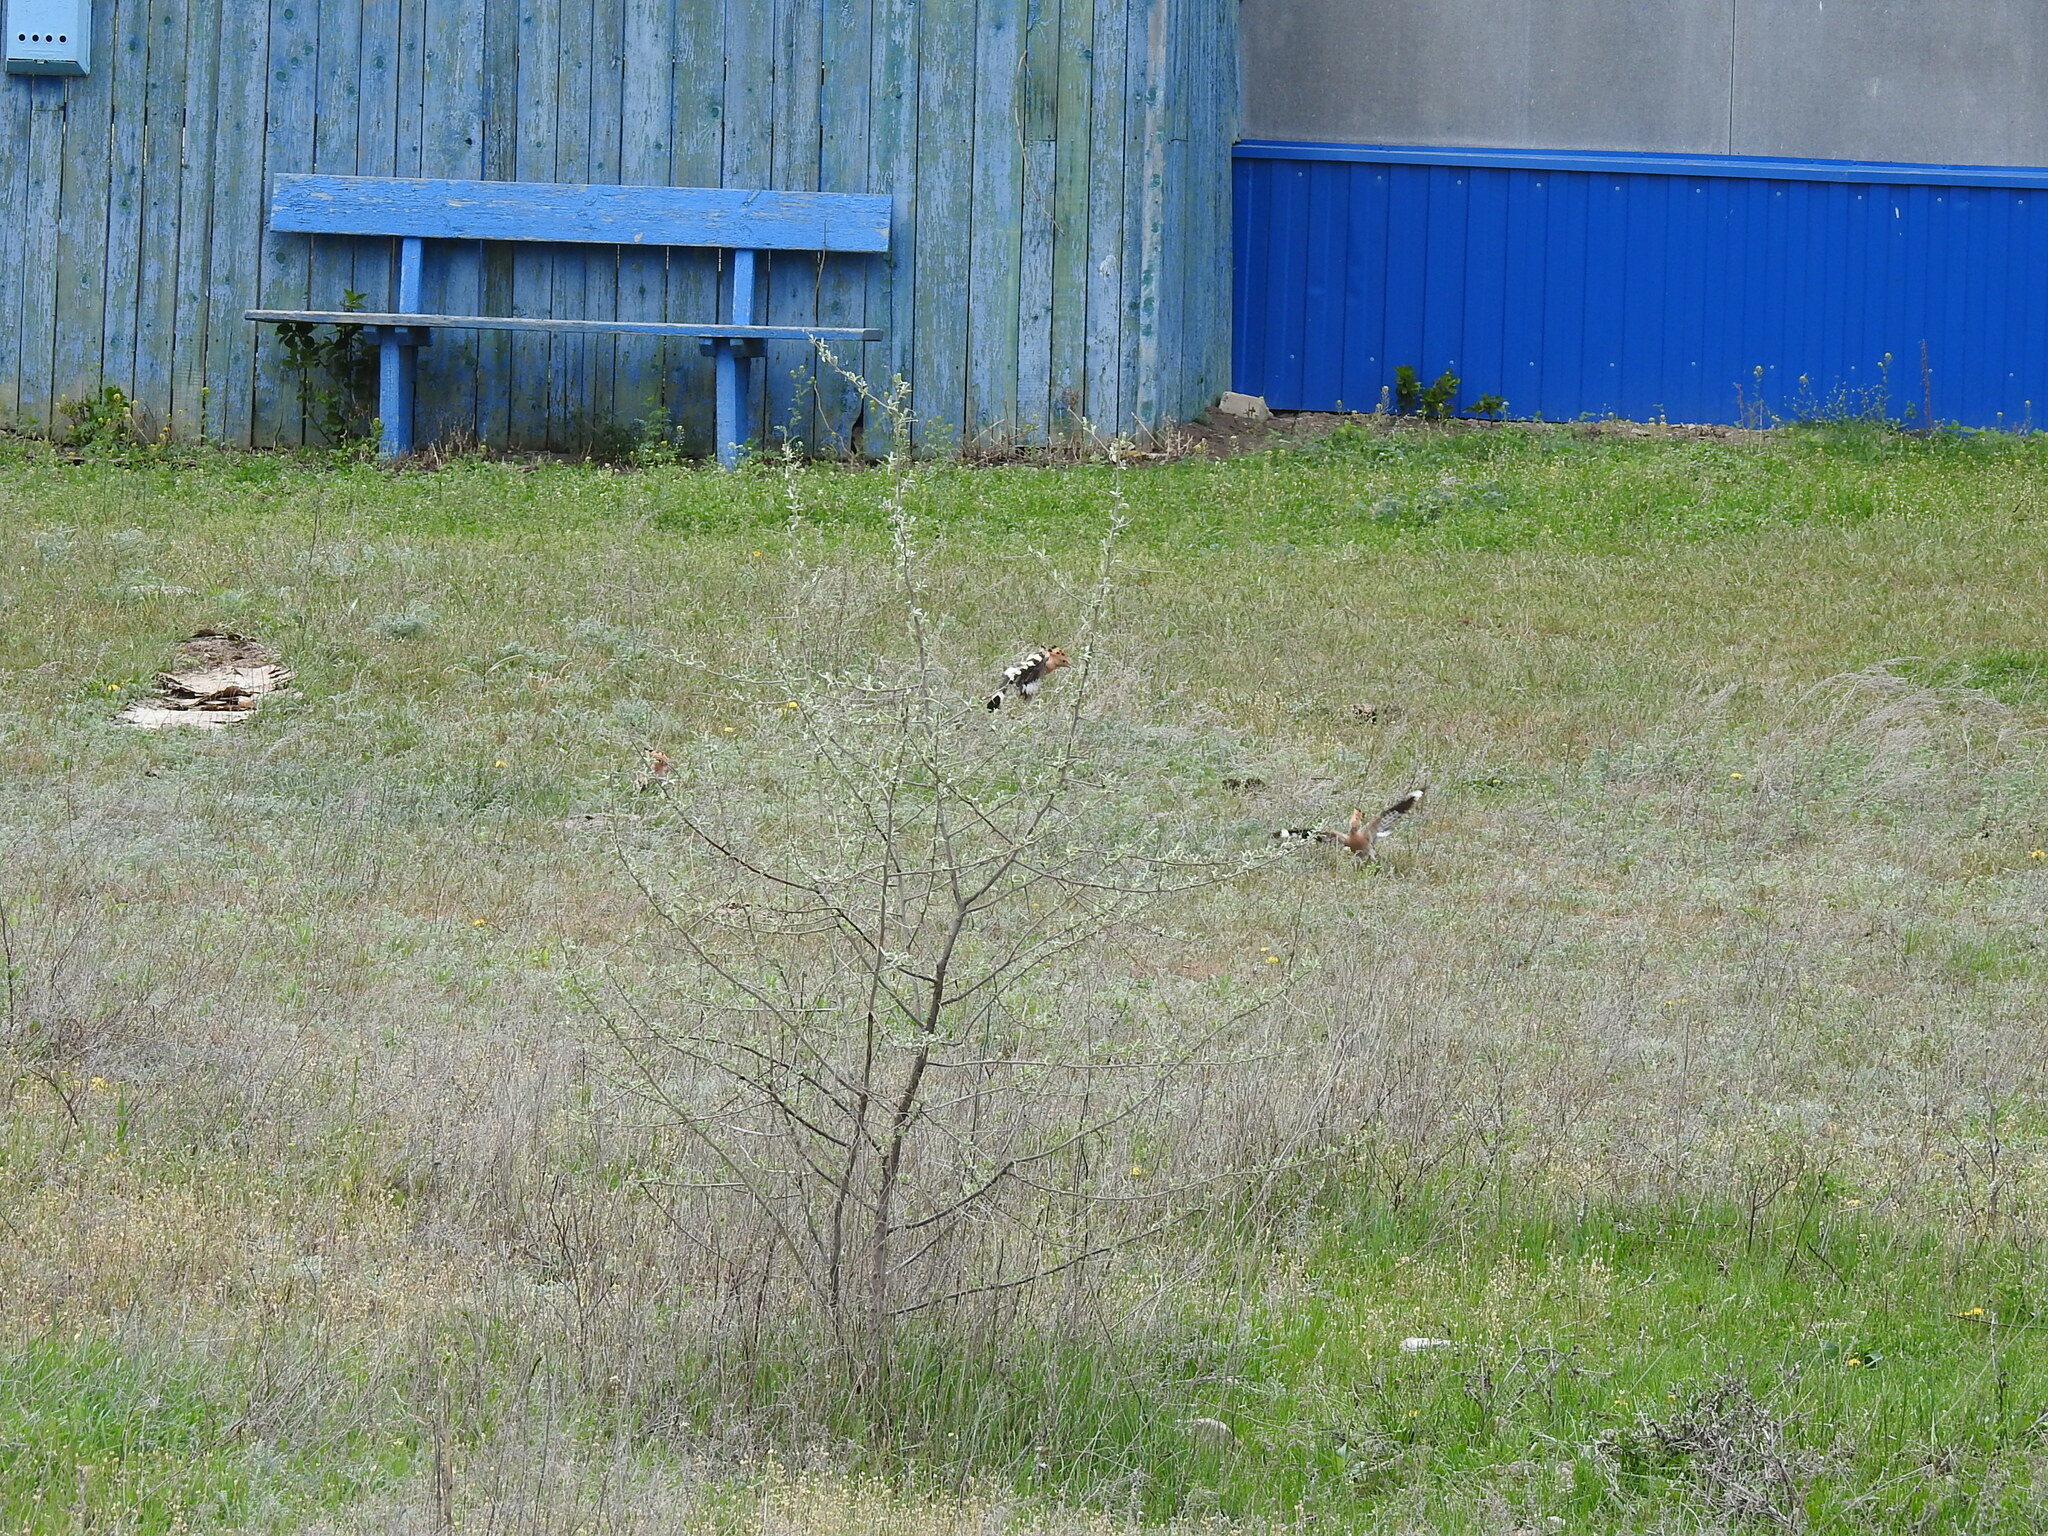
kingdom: Animalia
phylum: Chordata
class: Aves
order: Bucerotiformes
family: Upupidae
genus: Upupa
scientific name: Upupa epops
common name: Eurasian hoopoe
